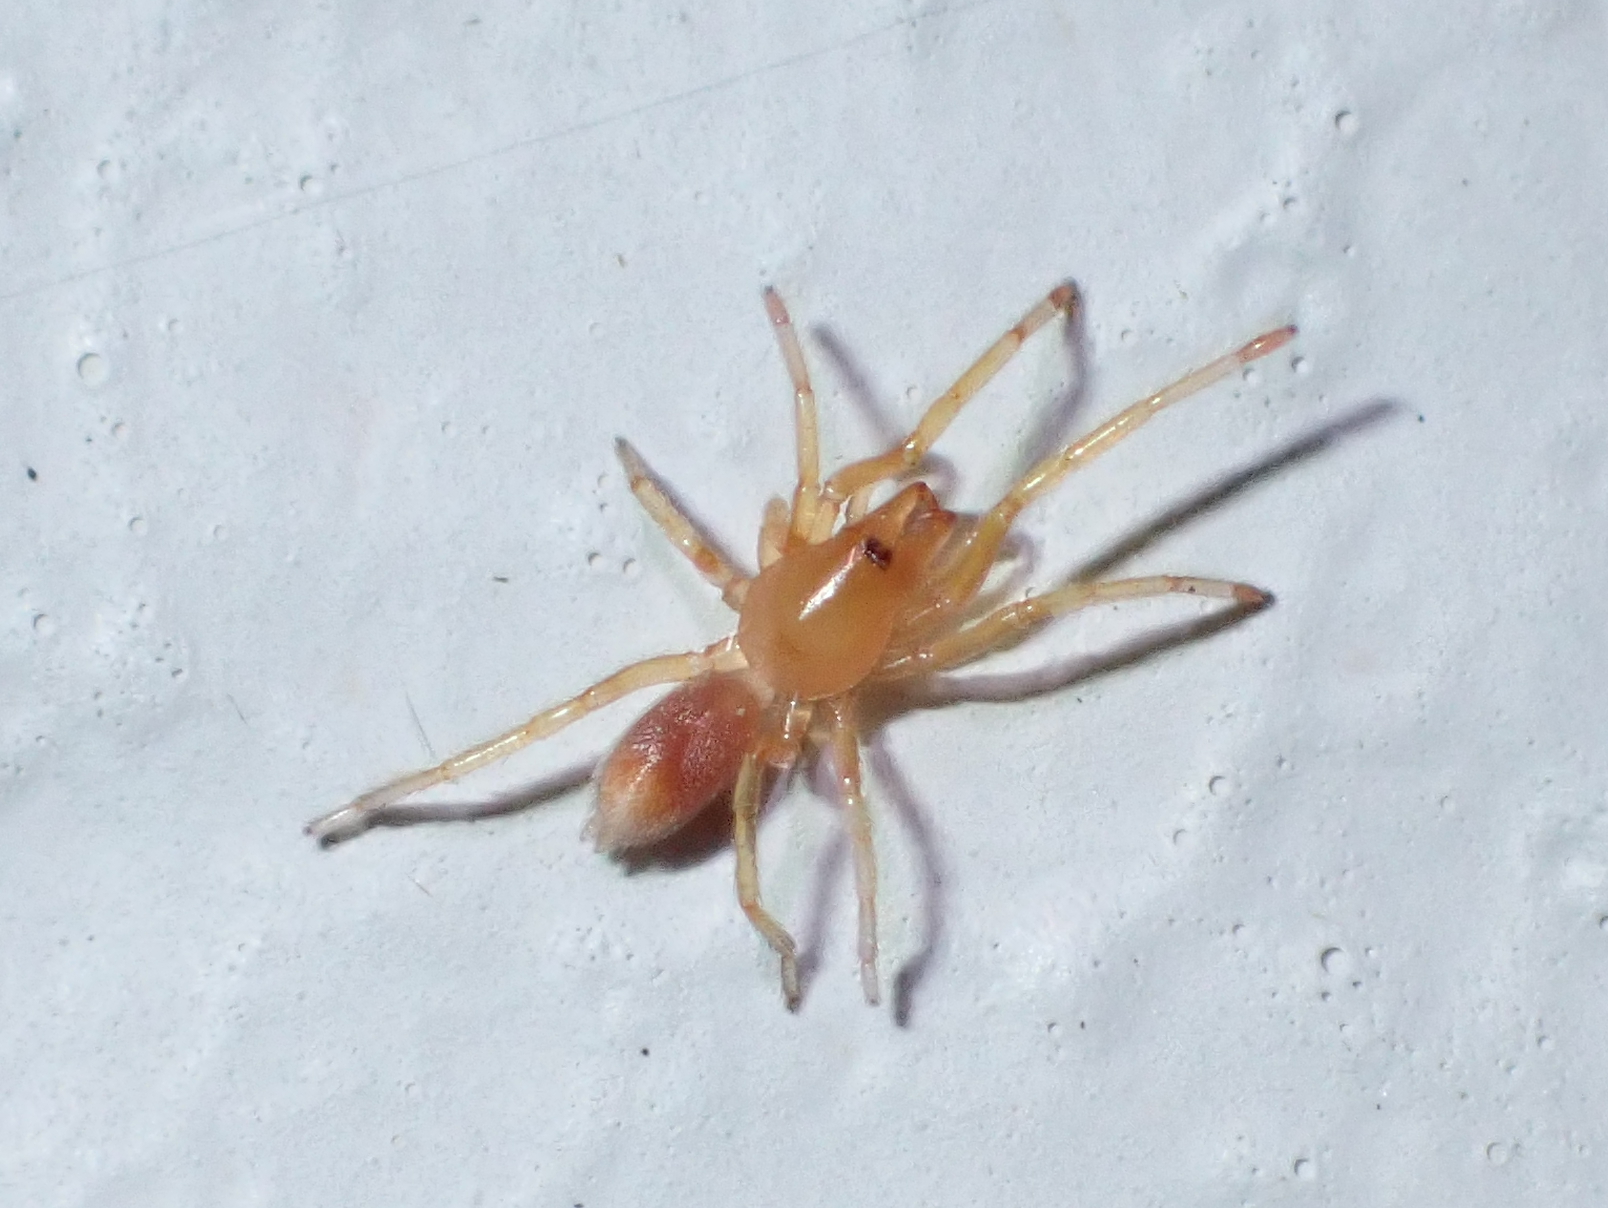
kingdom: Animalia
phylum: Arthropoda
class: Arachnida
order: Araneae
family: Dysderidae
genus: Dysdera
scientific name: Dysdera crocata
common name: Woodlouse spider
